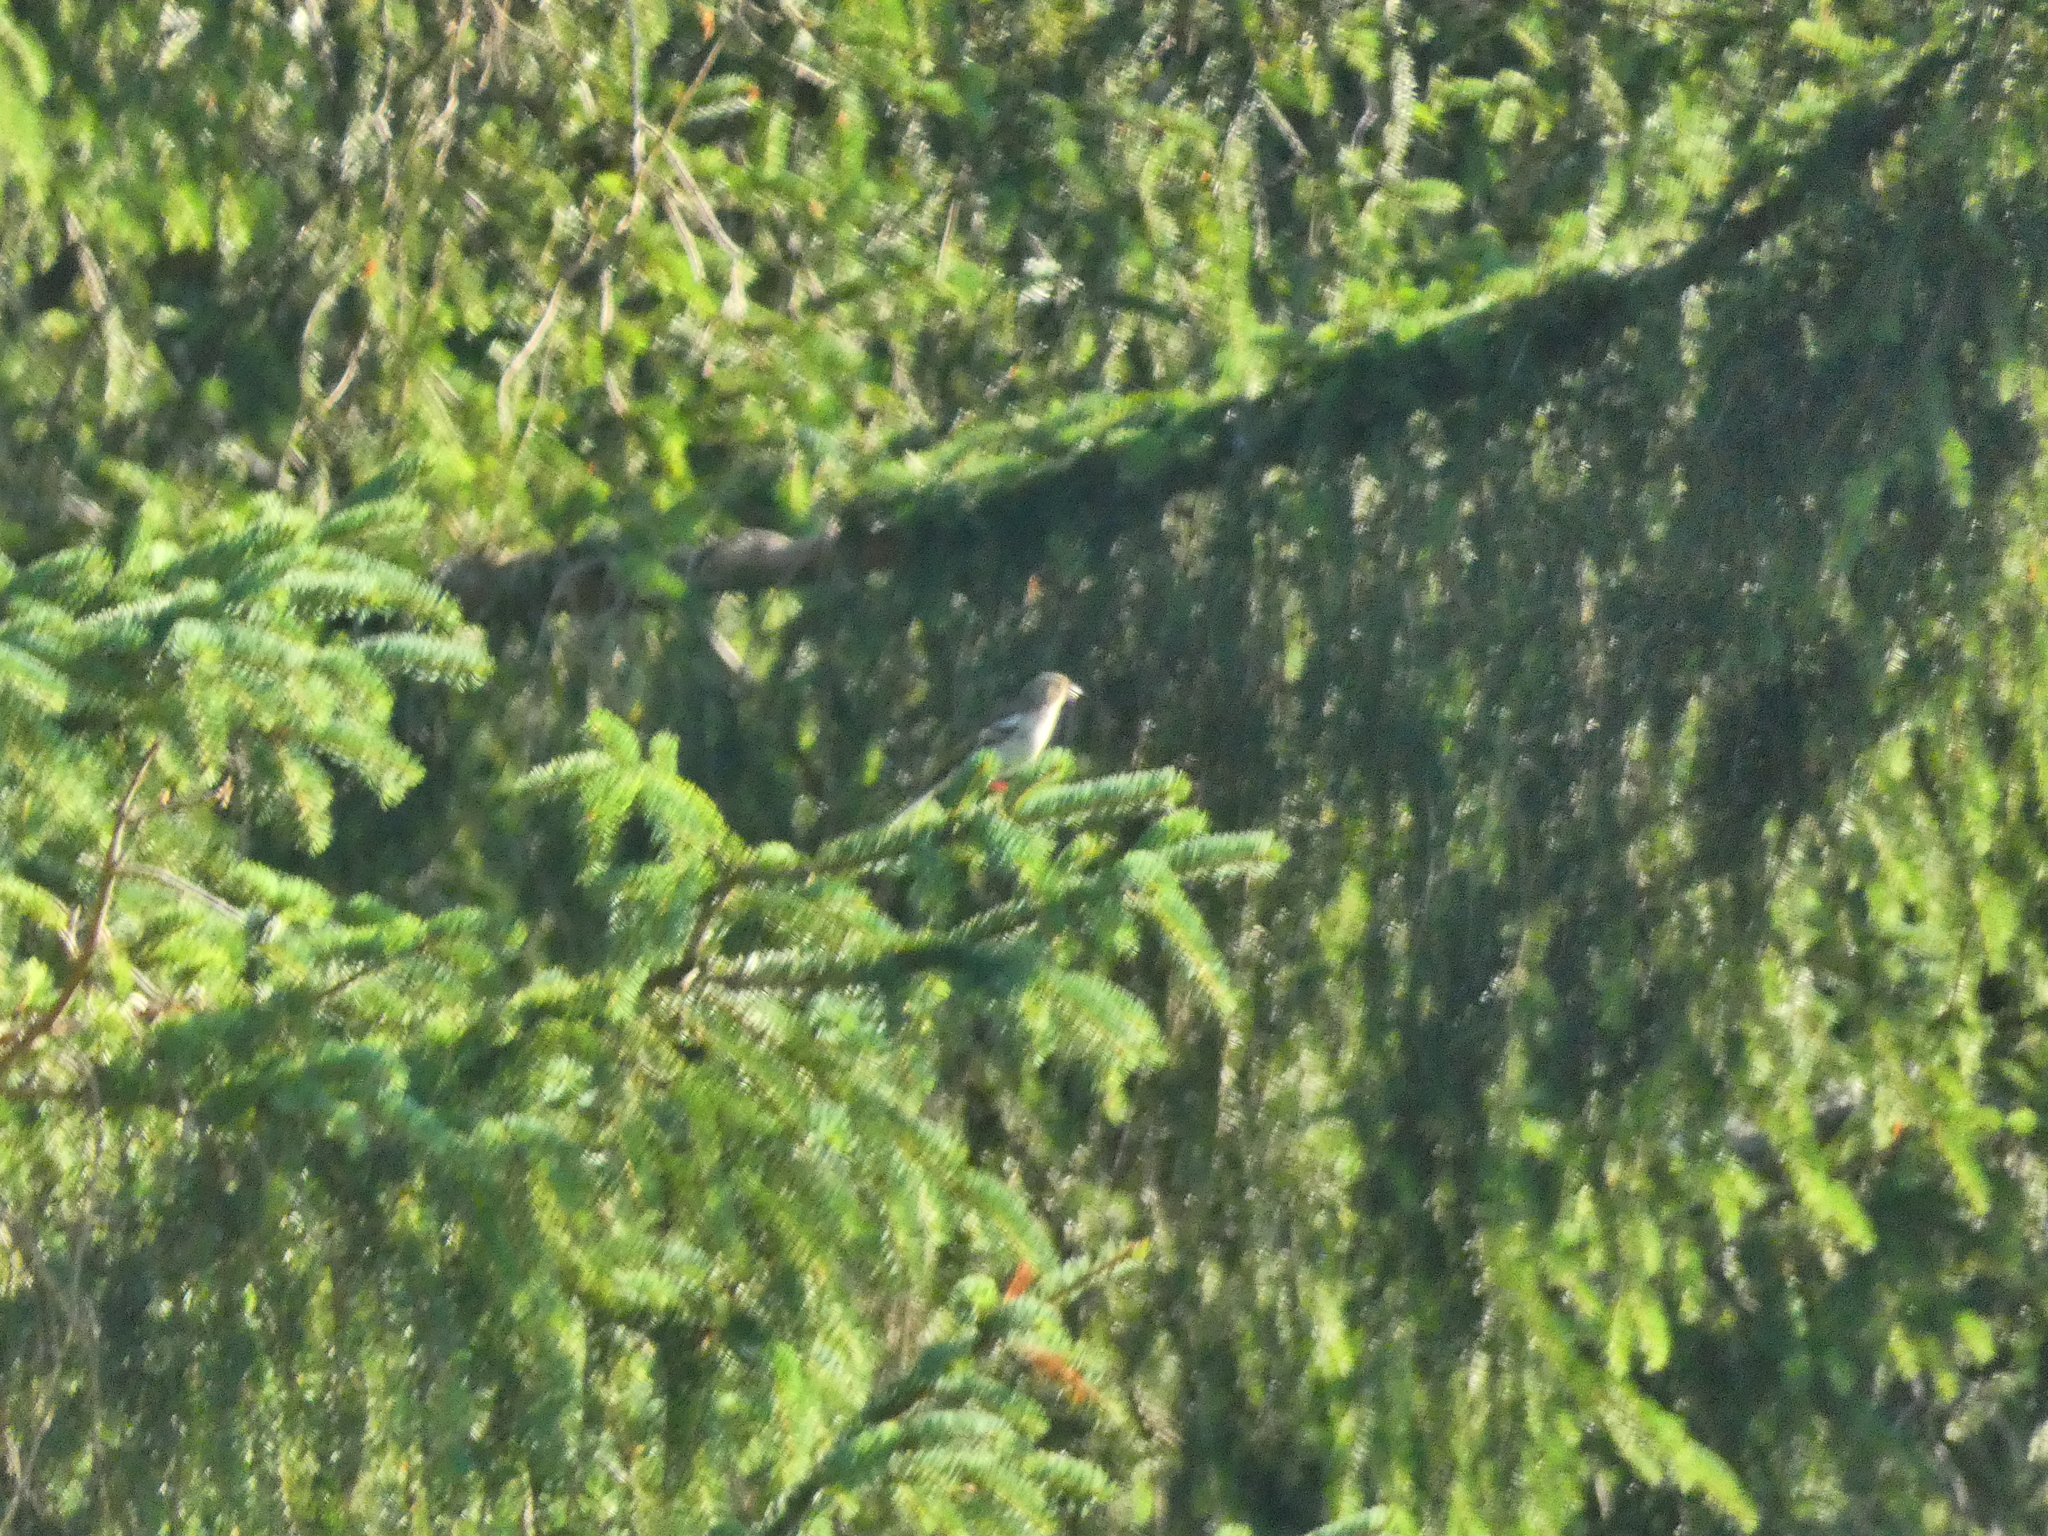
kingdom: Animalia
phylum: Chordata
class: Aves
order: Passeriformes
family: Fringillidae
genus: Fringilla
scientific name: Fringilla coelebs
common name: Common chaffinch
